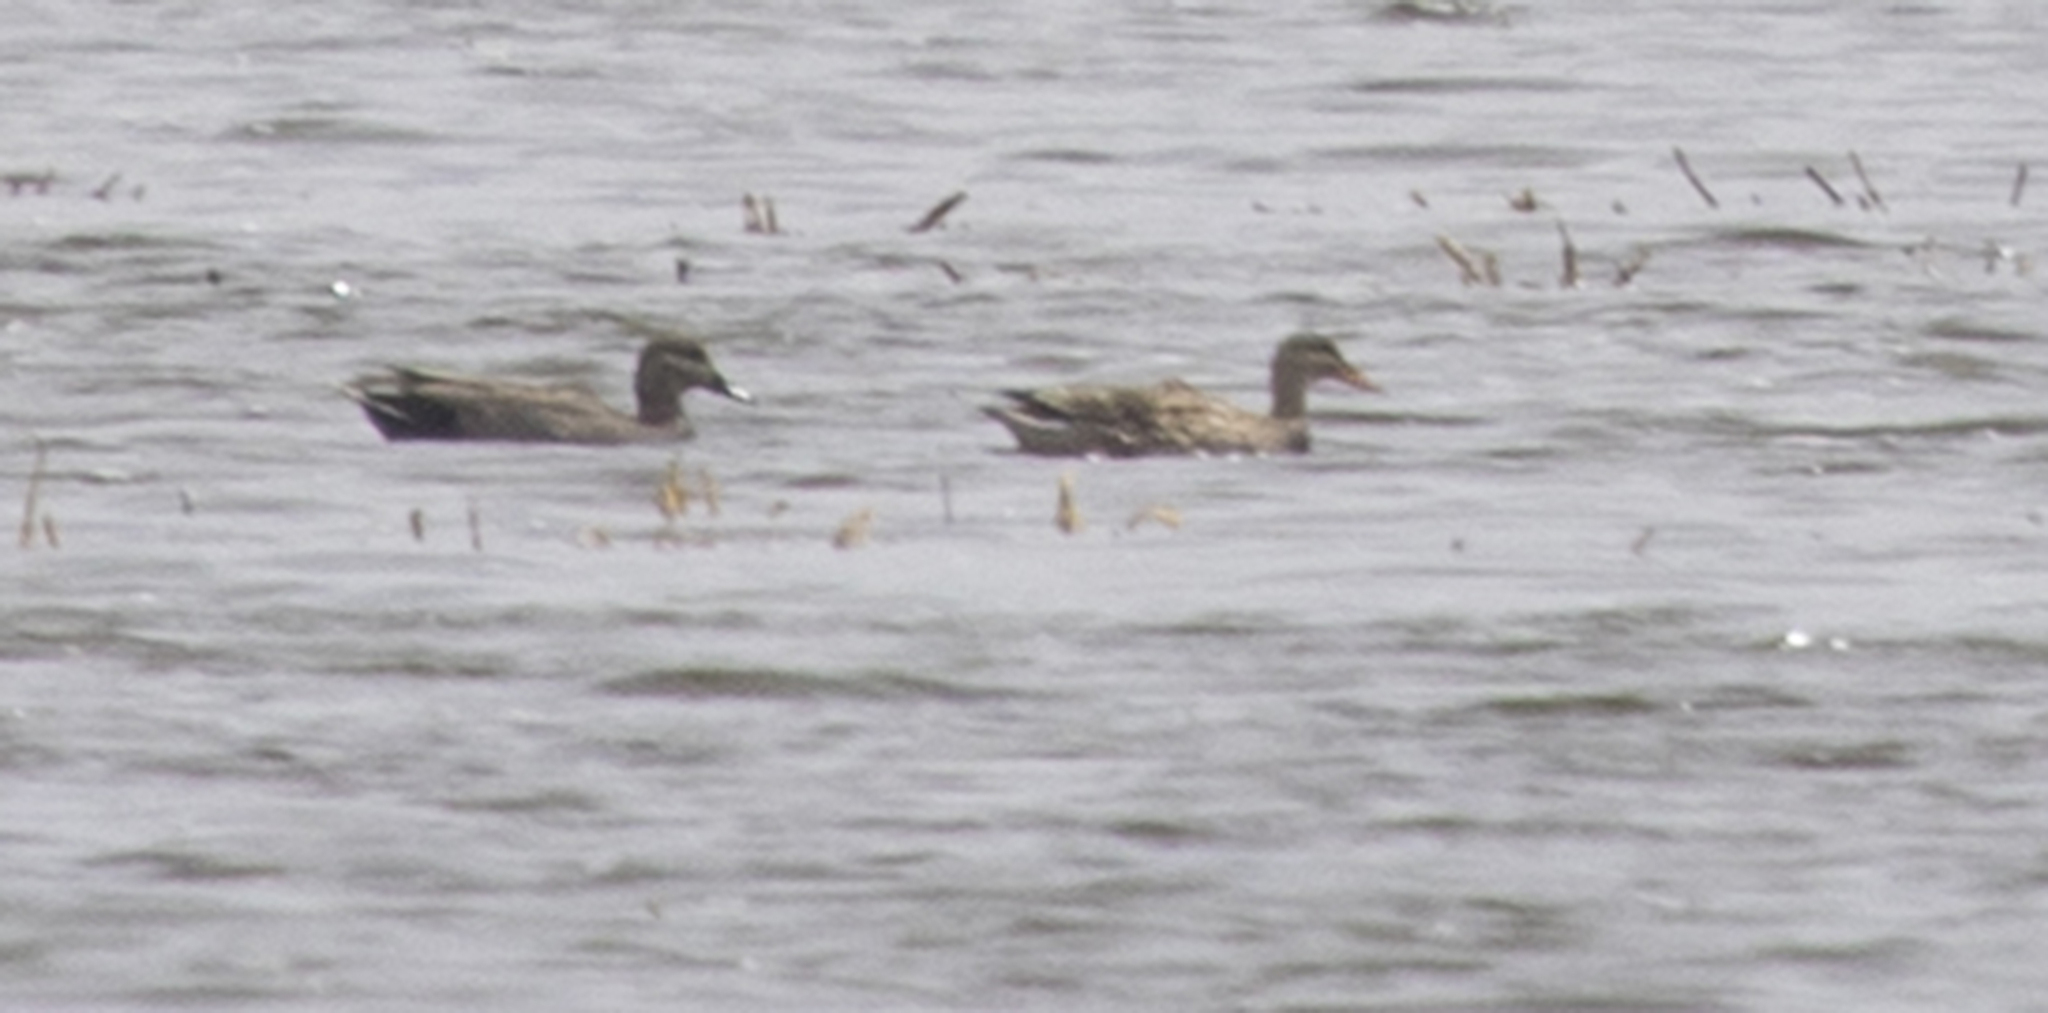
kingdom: Animalia
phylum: Chordata
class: Aves
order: Anseriformes
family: Anatidae
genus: Mareca
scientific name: Mareca strepera
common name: Gadwall
